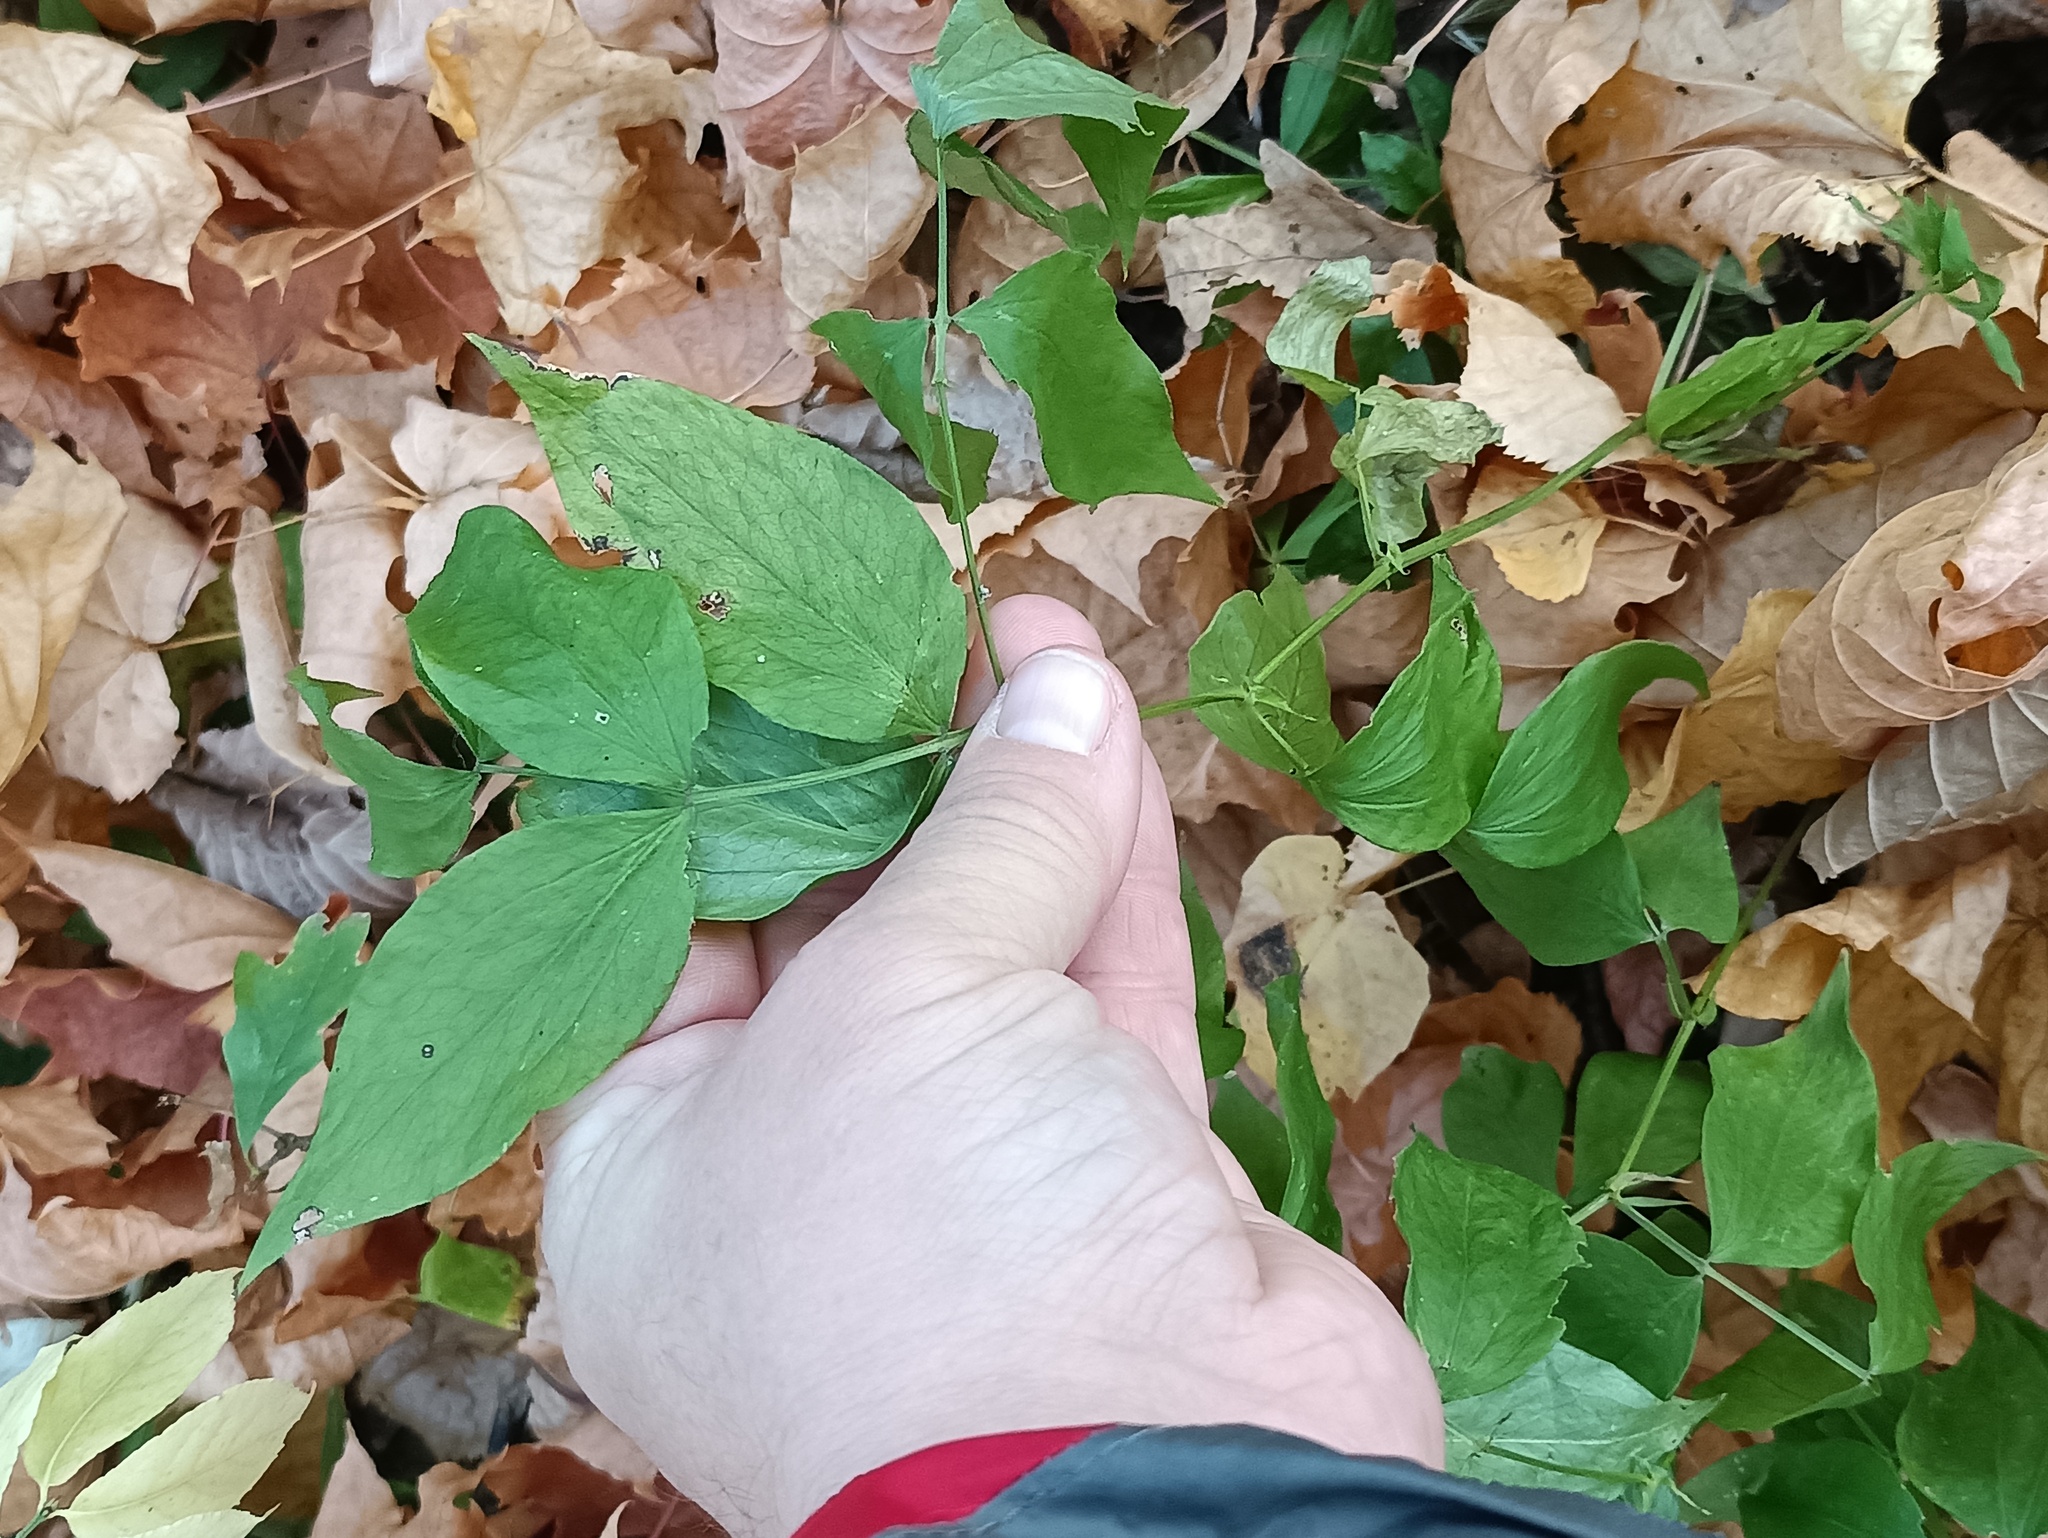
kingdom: Plantae
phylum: Tracheophyta
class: Magnoliopsida
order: Fabales
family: Fabaceae
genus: Lathyrus
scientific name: Lathyrus vernus
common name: Spring pea
